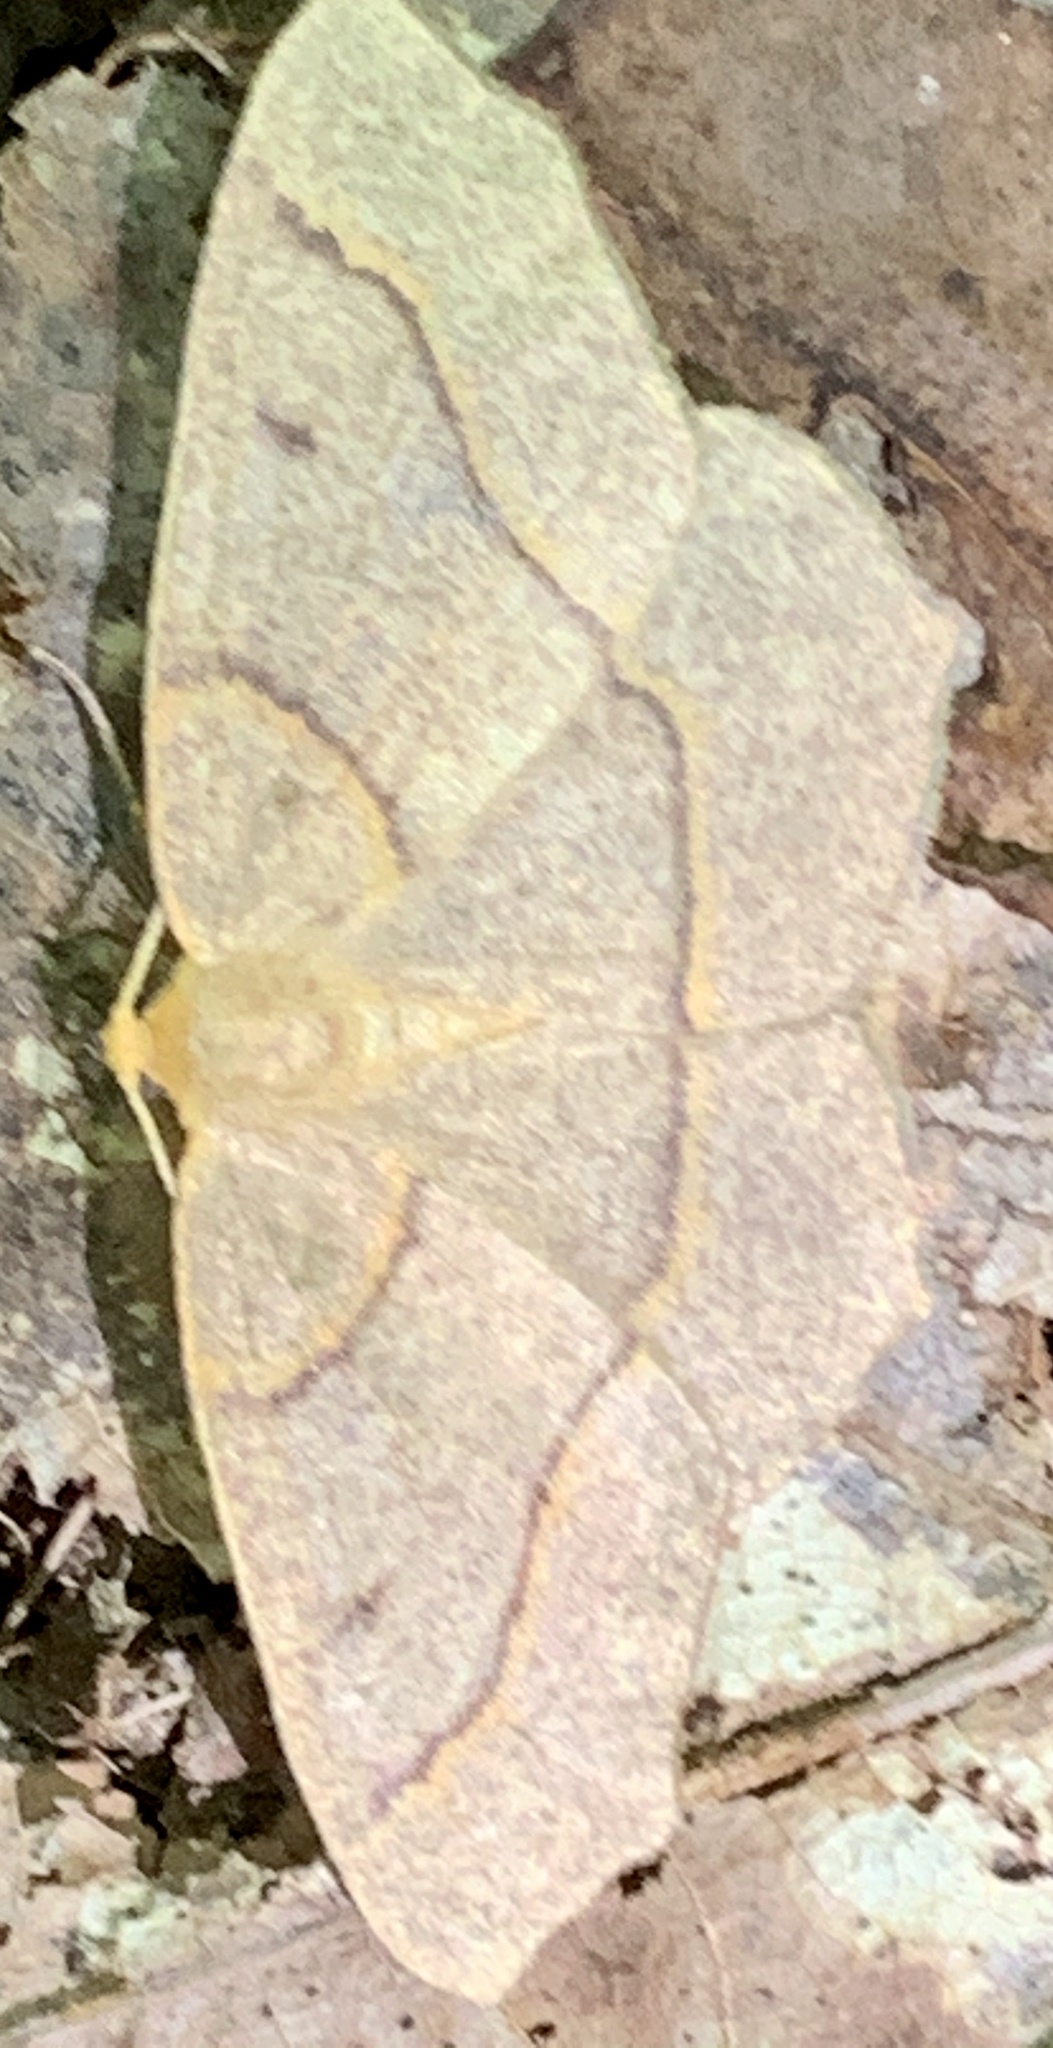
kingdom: Animalia
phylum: Arthropoda
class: Insecta
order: Lepidoptera
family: Geometridae
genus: Lambdina
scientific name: Lambdina fiscellaria
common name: Hemlock looper
